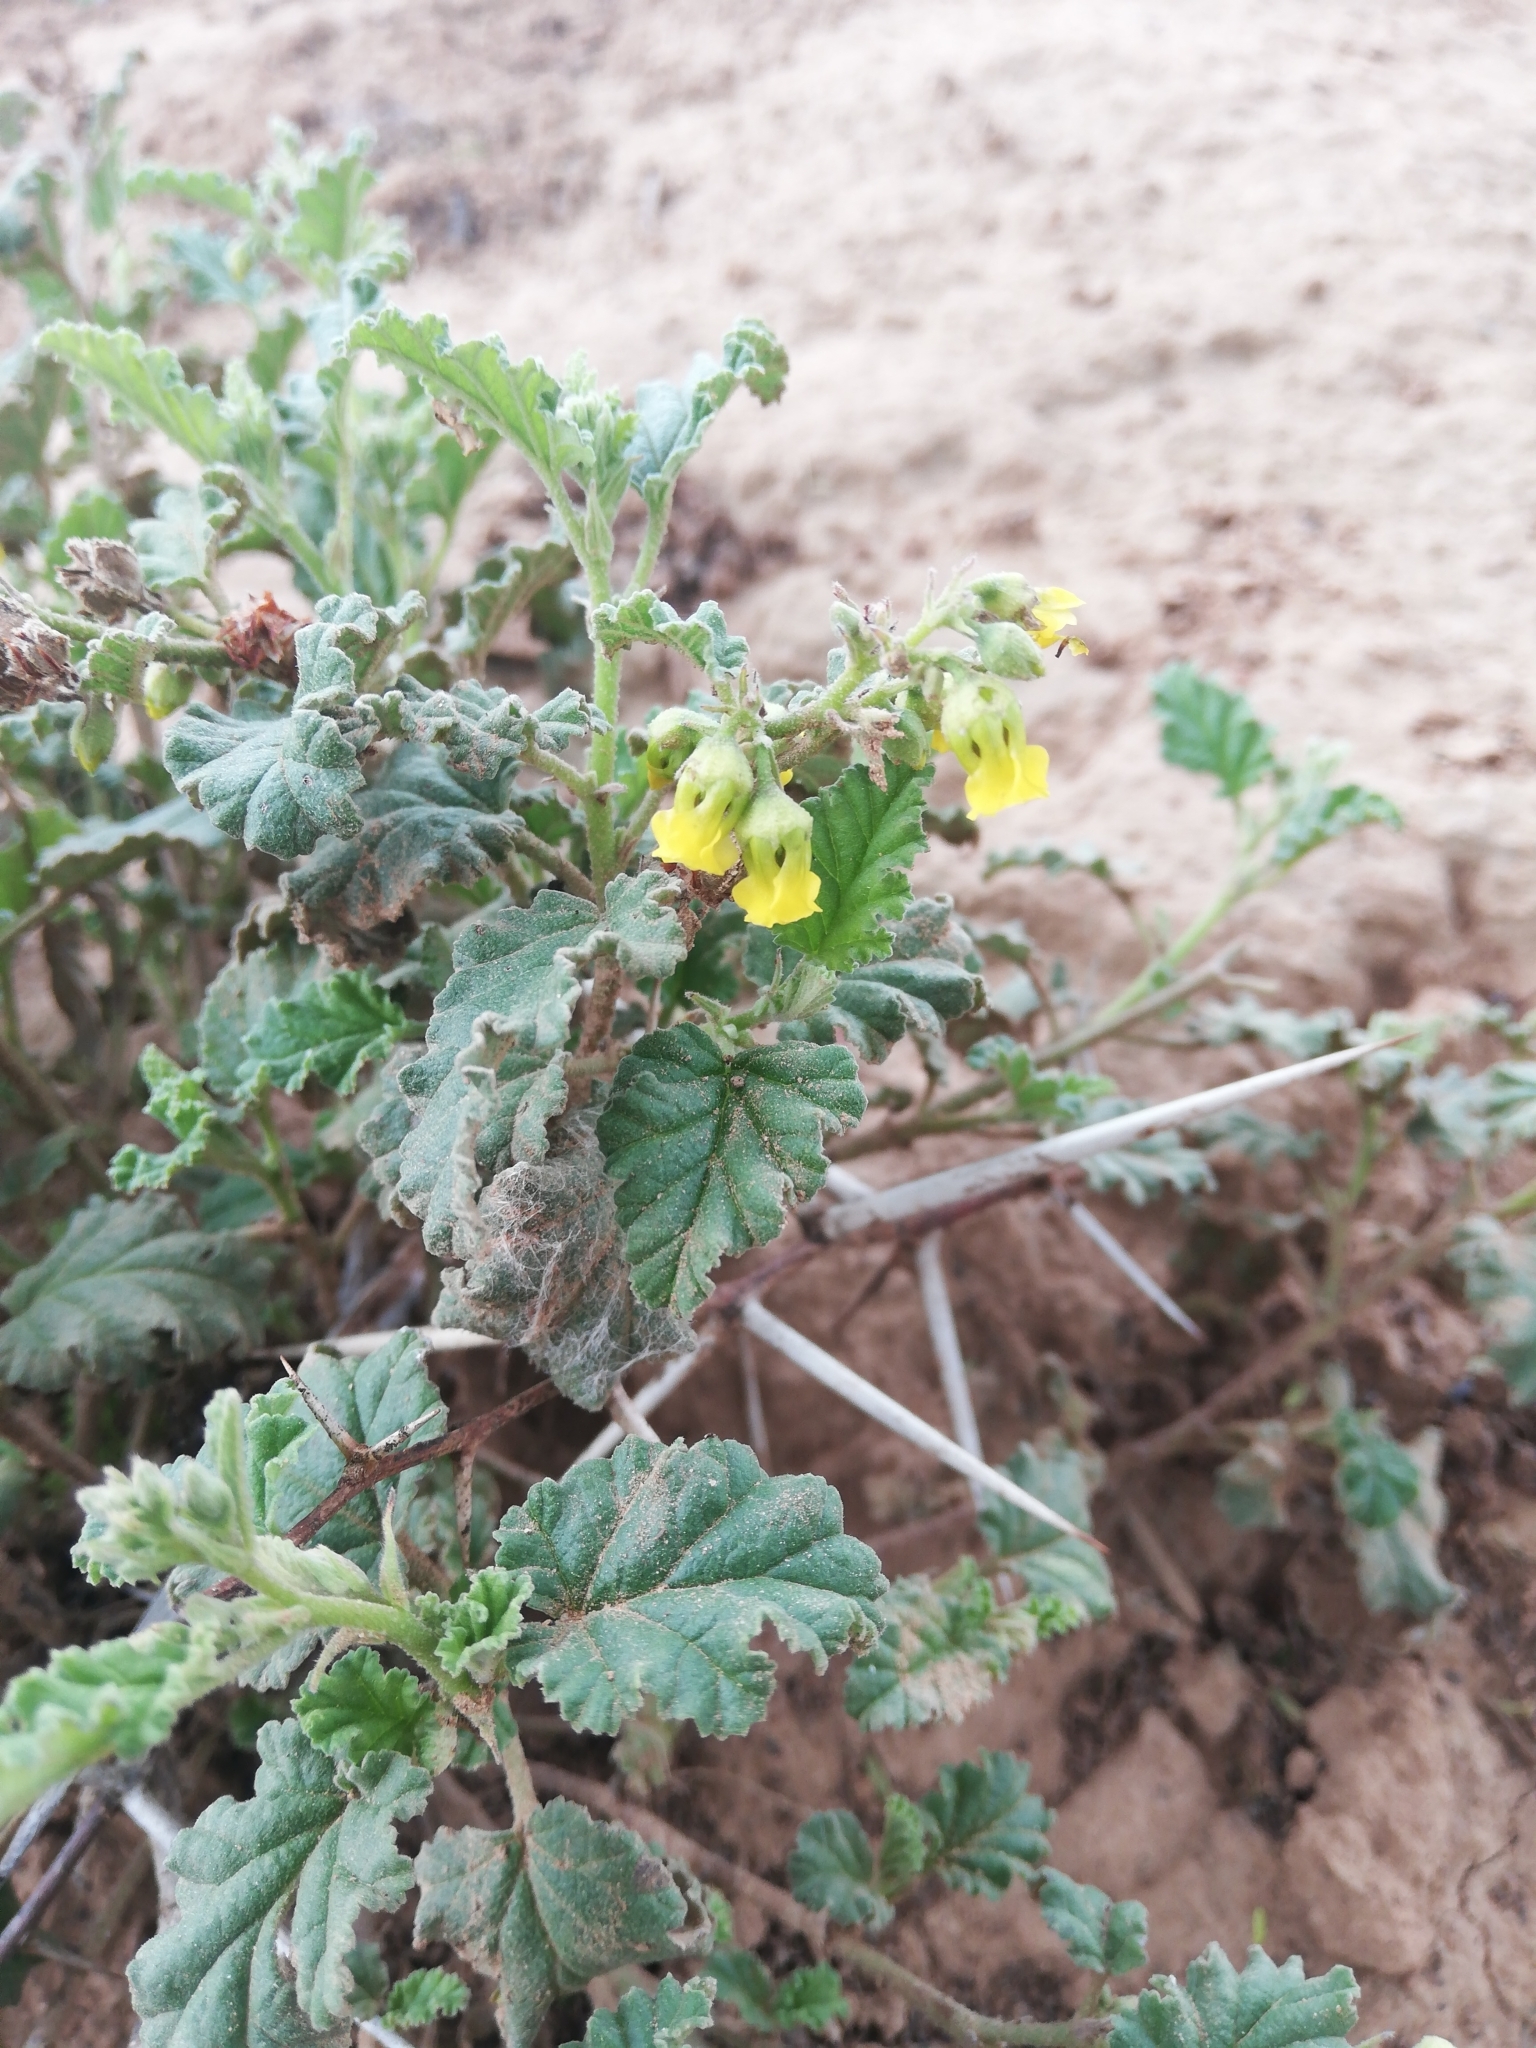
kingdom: Plantae
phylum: Tracheophyta
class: Magnoliopsida
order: Malvales
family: Malvaceae
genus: Hermannia
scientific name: Hermannia althaeoides
